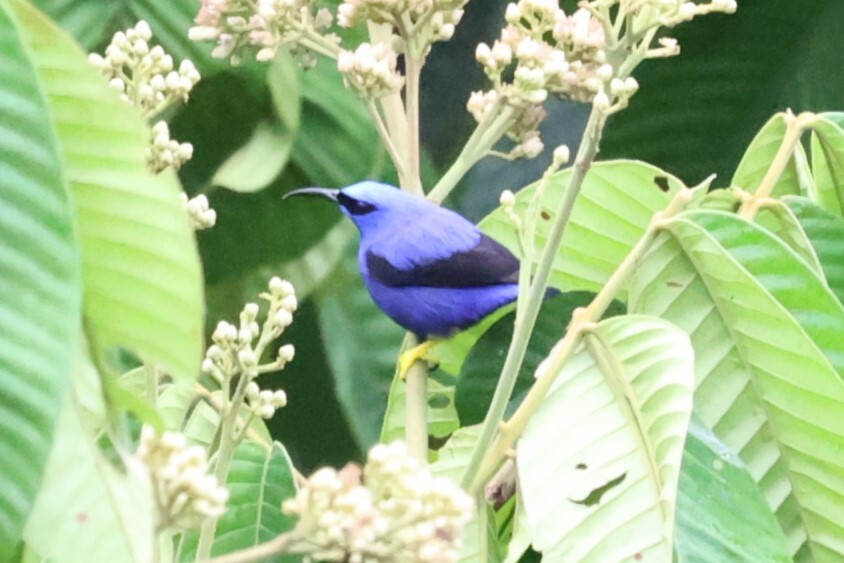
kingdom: Animalia
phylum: Chordata
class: Aves
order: Passeriformes
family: Thraupidae
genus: Cyanerpes
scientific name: Cyanerpes caeruleus
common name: Purple honeycreeper
